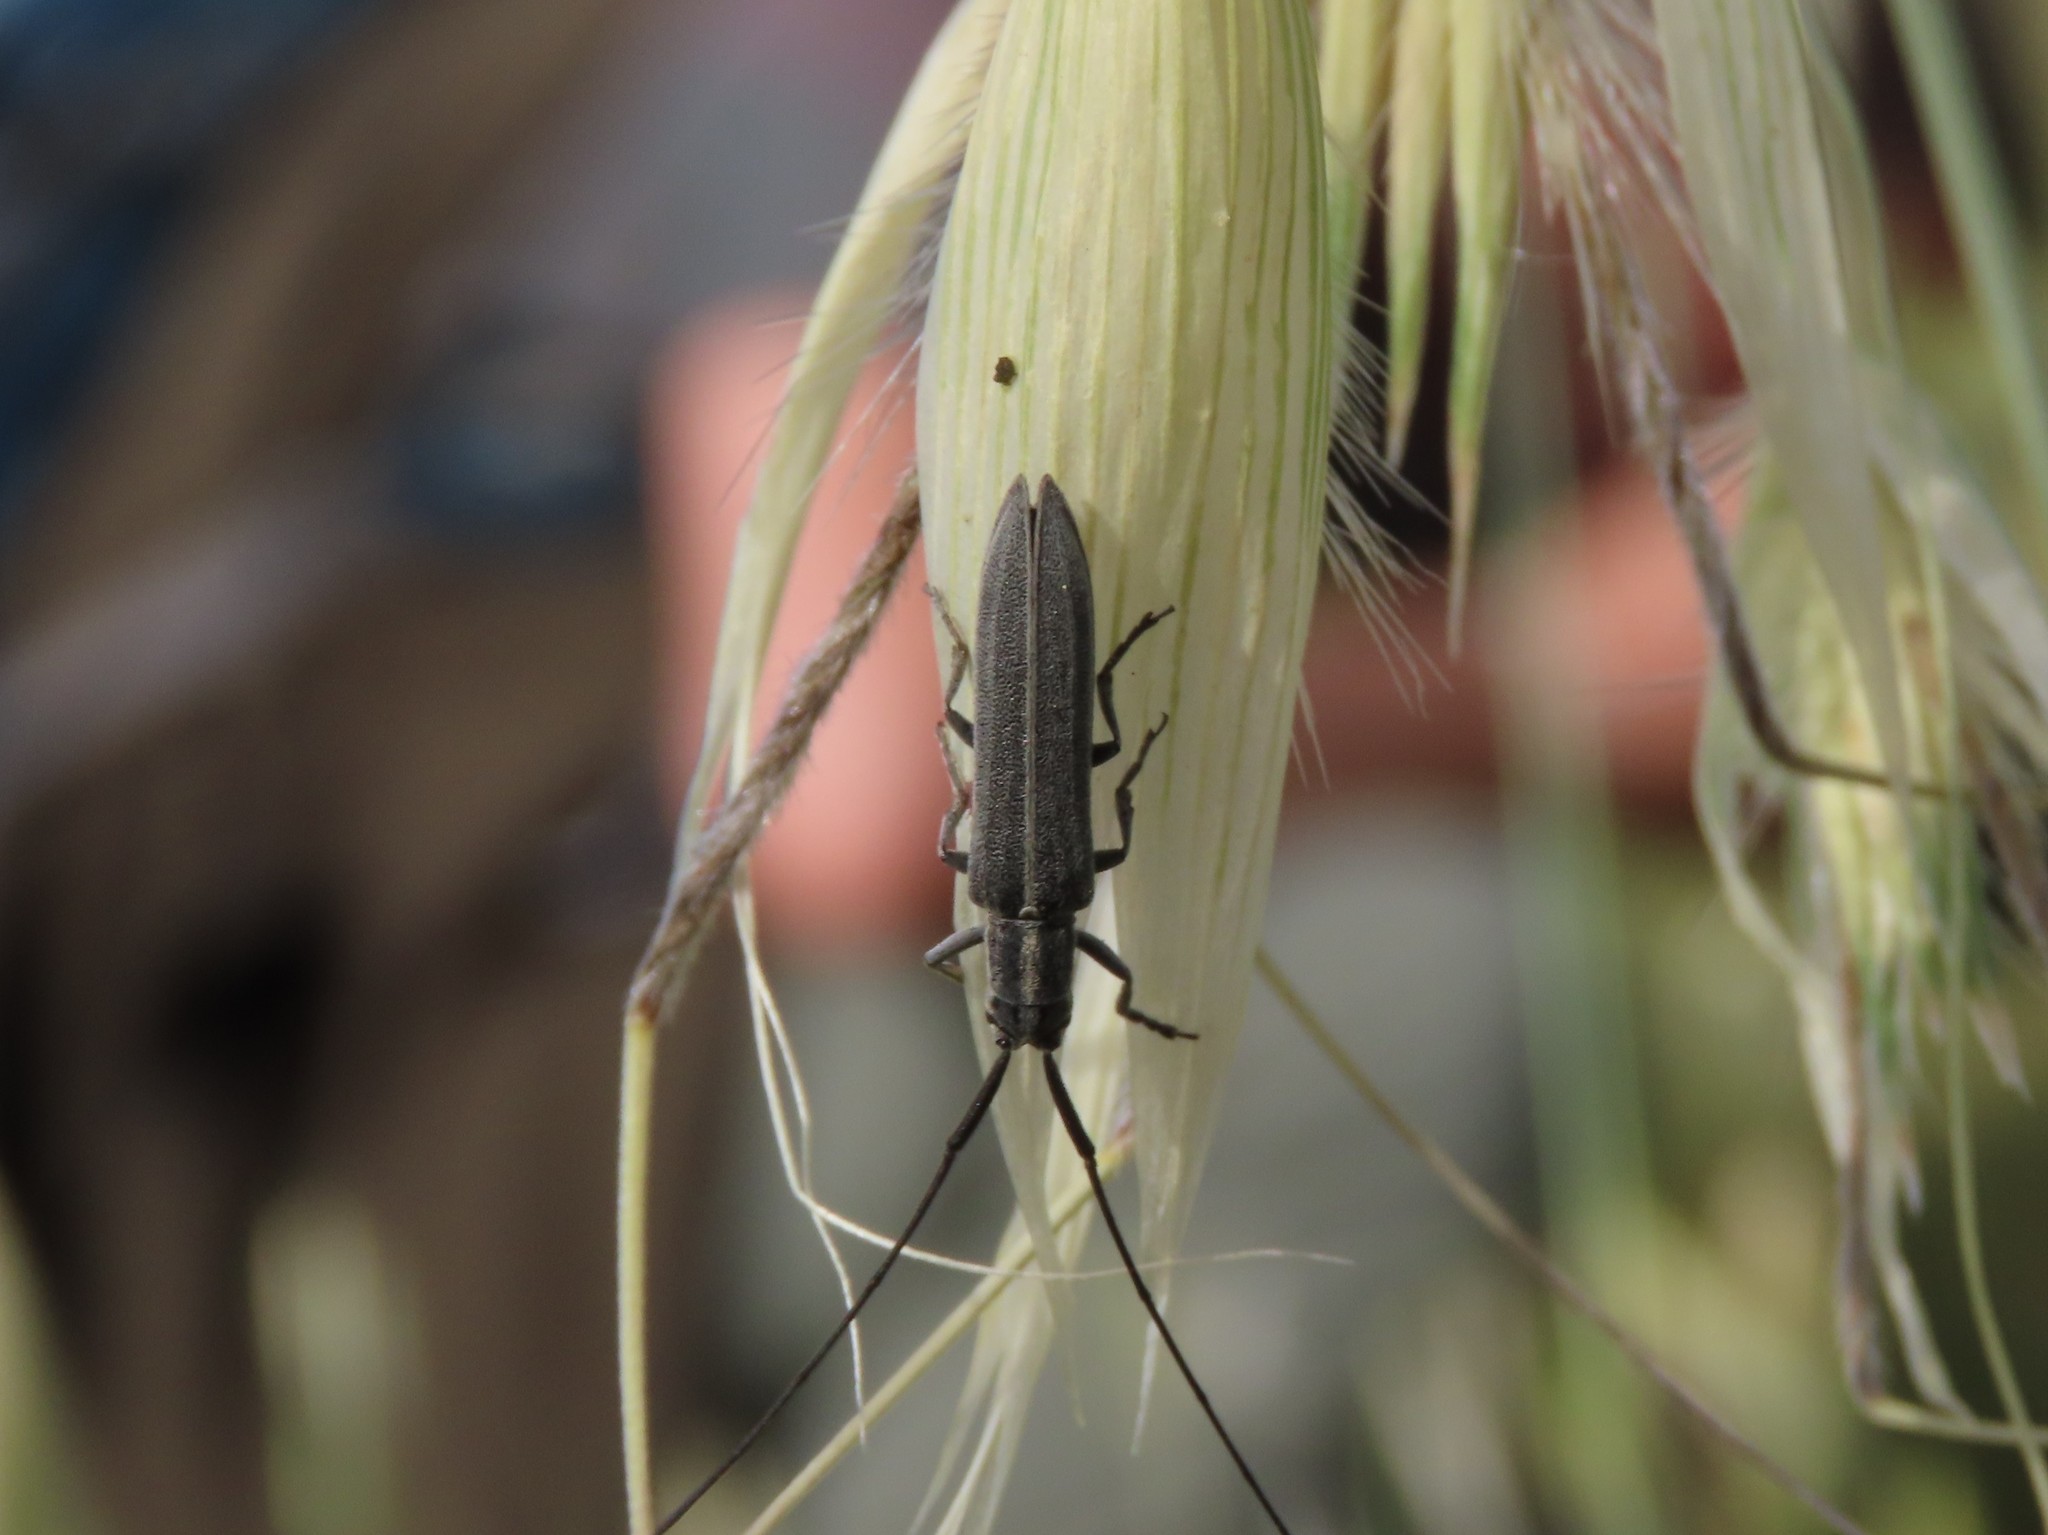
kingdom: Animalia
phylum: Arthropoda
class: Insecta
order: Coleoptera
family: Cerambycidae
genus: Calamobius
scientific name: Calamobius filum
